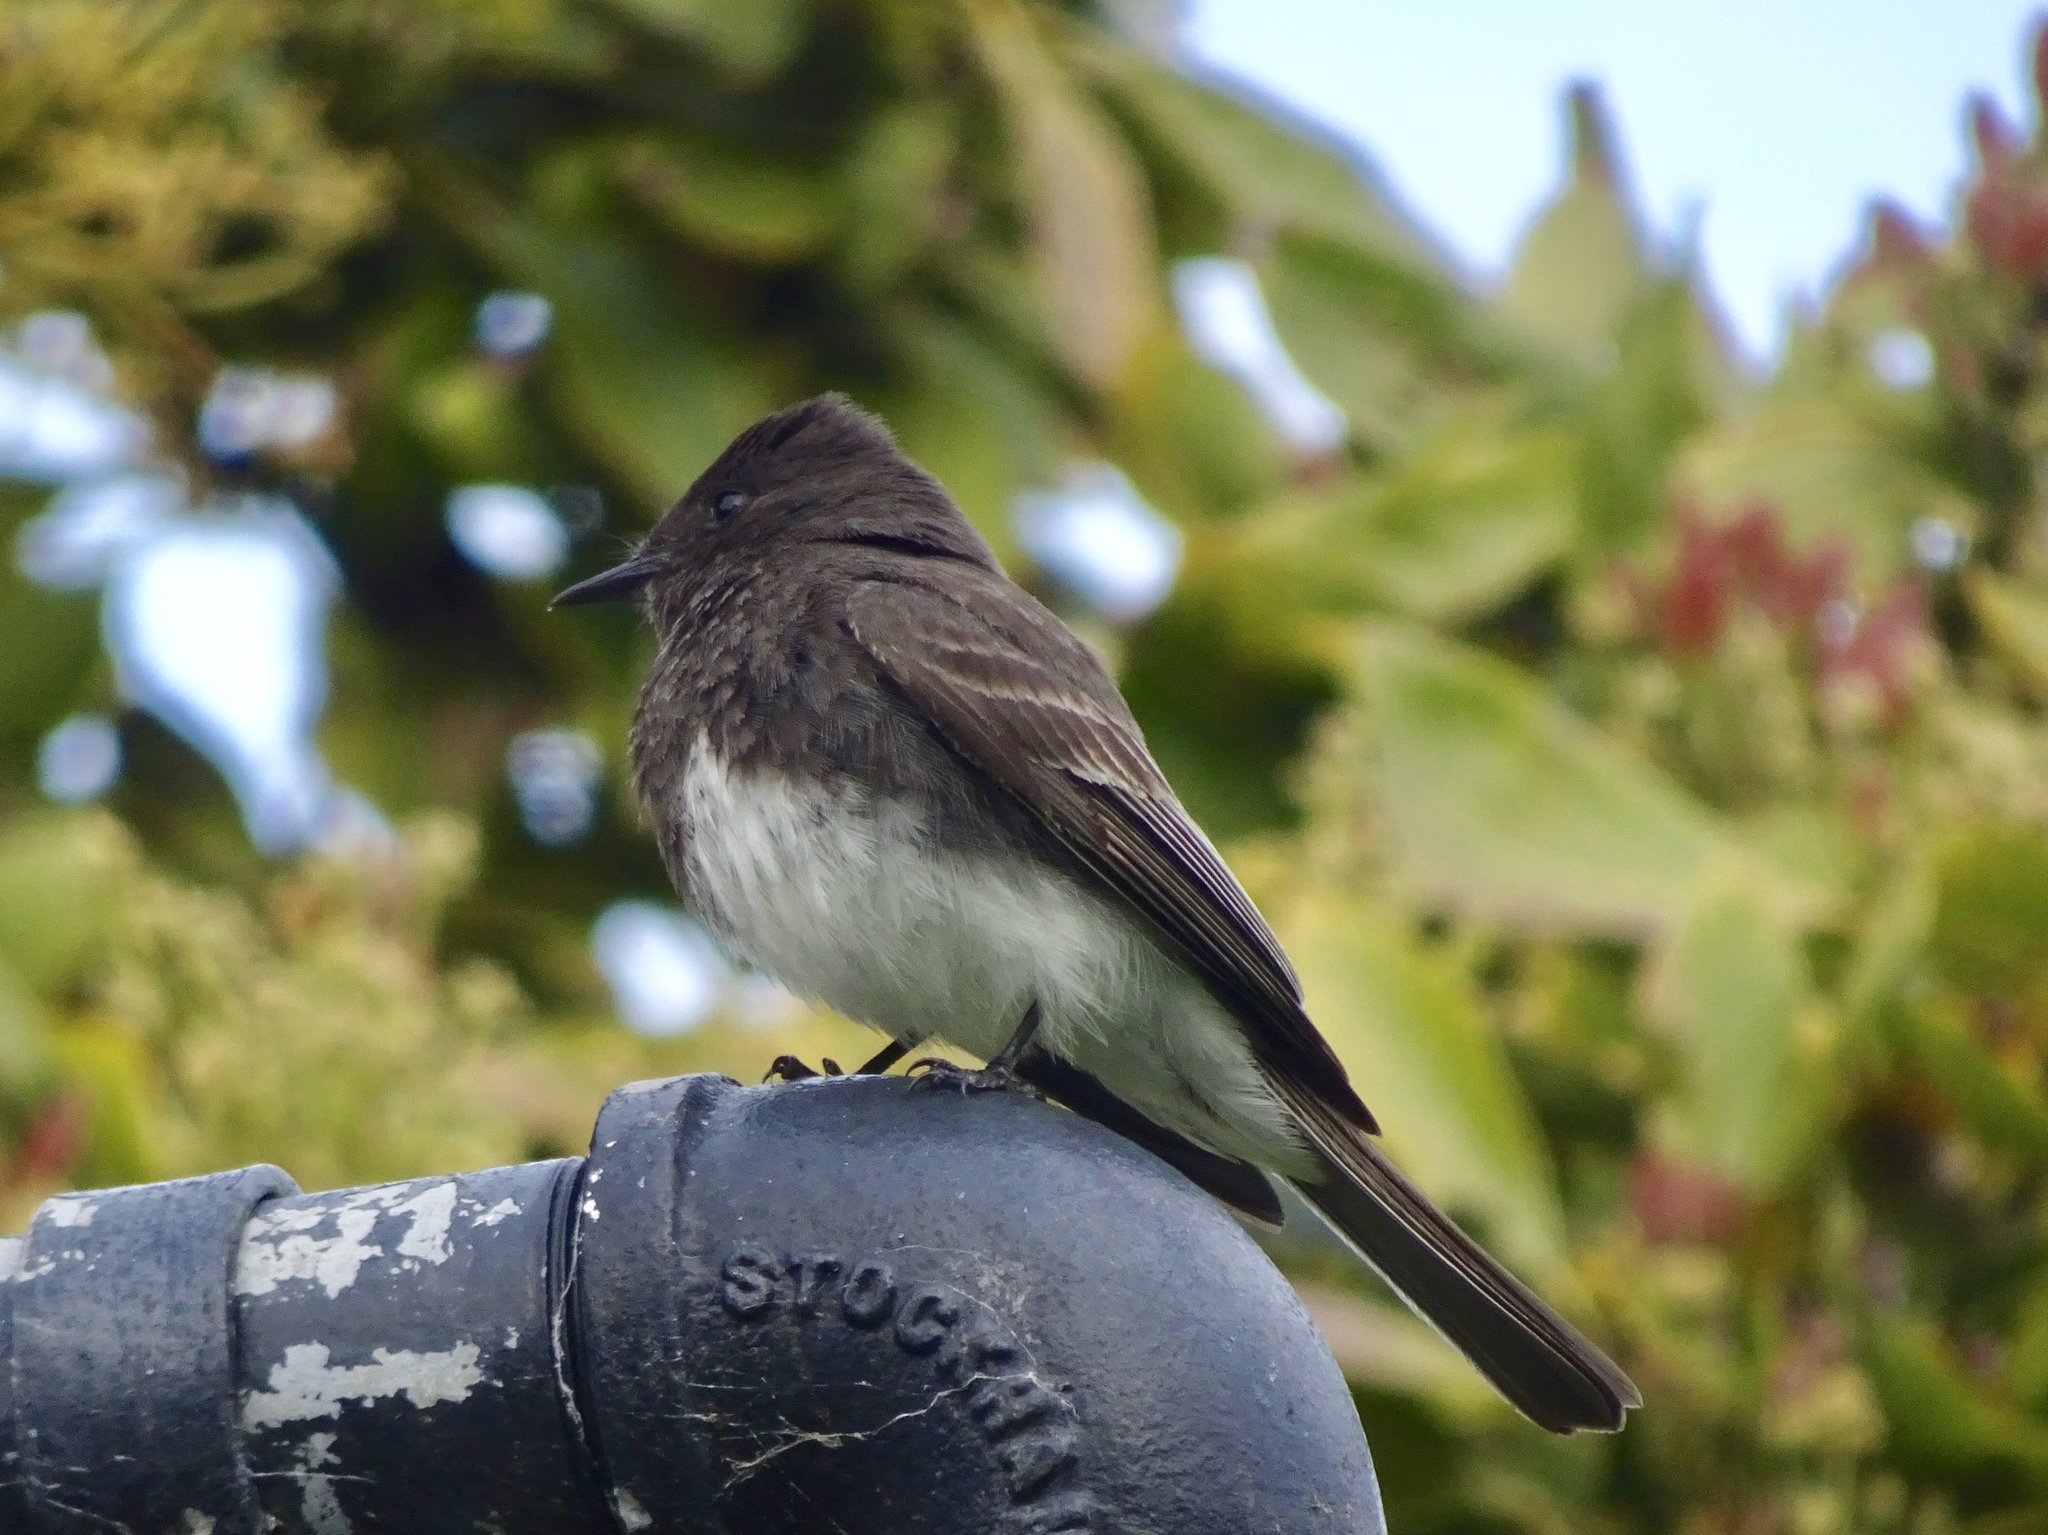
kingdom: Animalia
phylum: Chordata
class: Aves
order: Passeriformes
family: Tyrannidae
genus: Sayornis
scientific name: Sayornis nigricans
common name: Black phoebe
